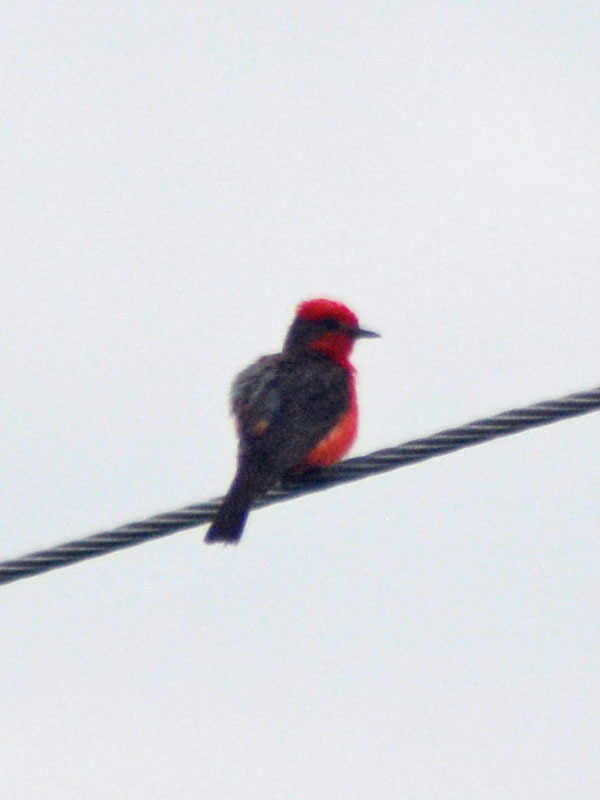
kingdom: Animalia
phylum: Chordata
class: Aves
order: Passeriformes
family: Tyrannidae
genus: Pyrocephalus
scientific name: Pyrocephalus rubinus
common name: Vermilion flycatcher
